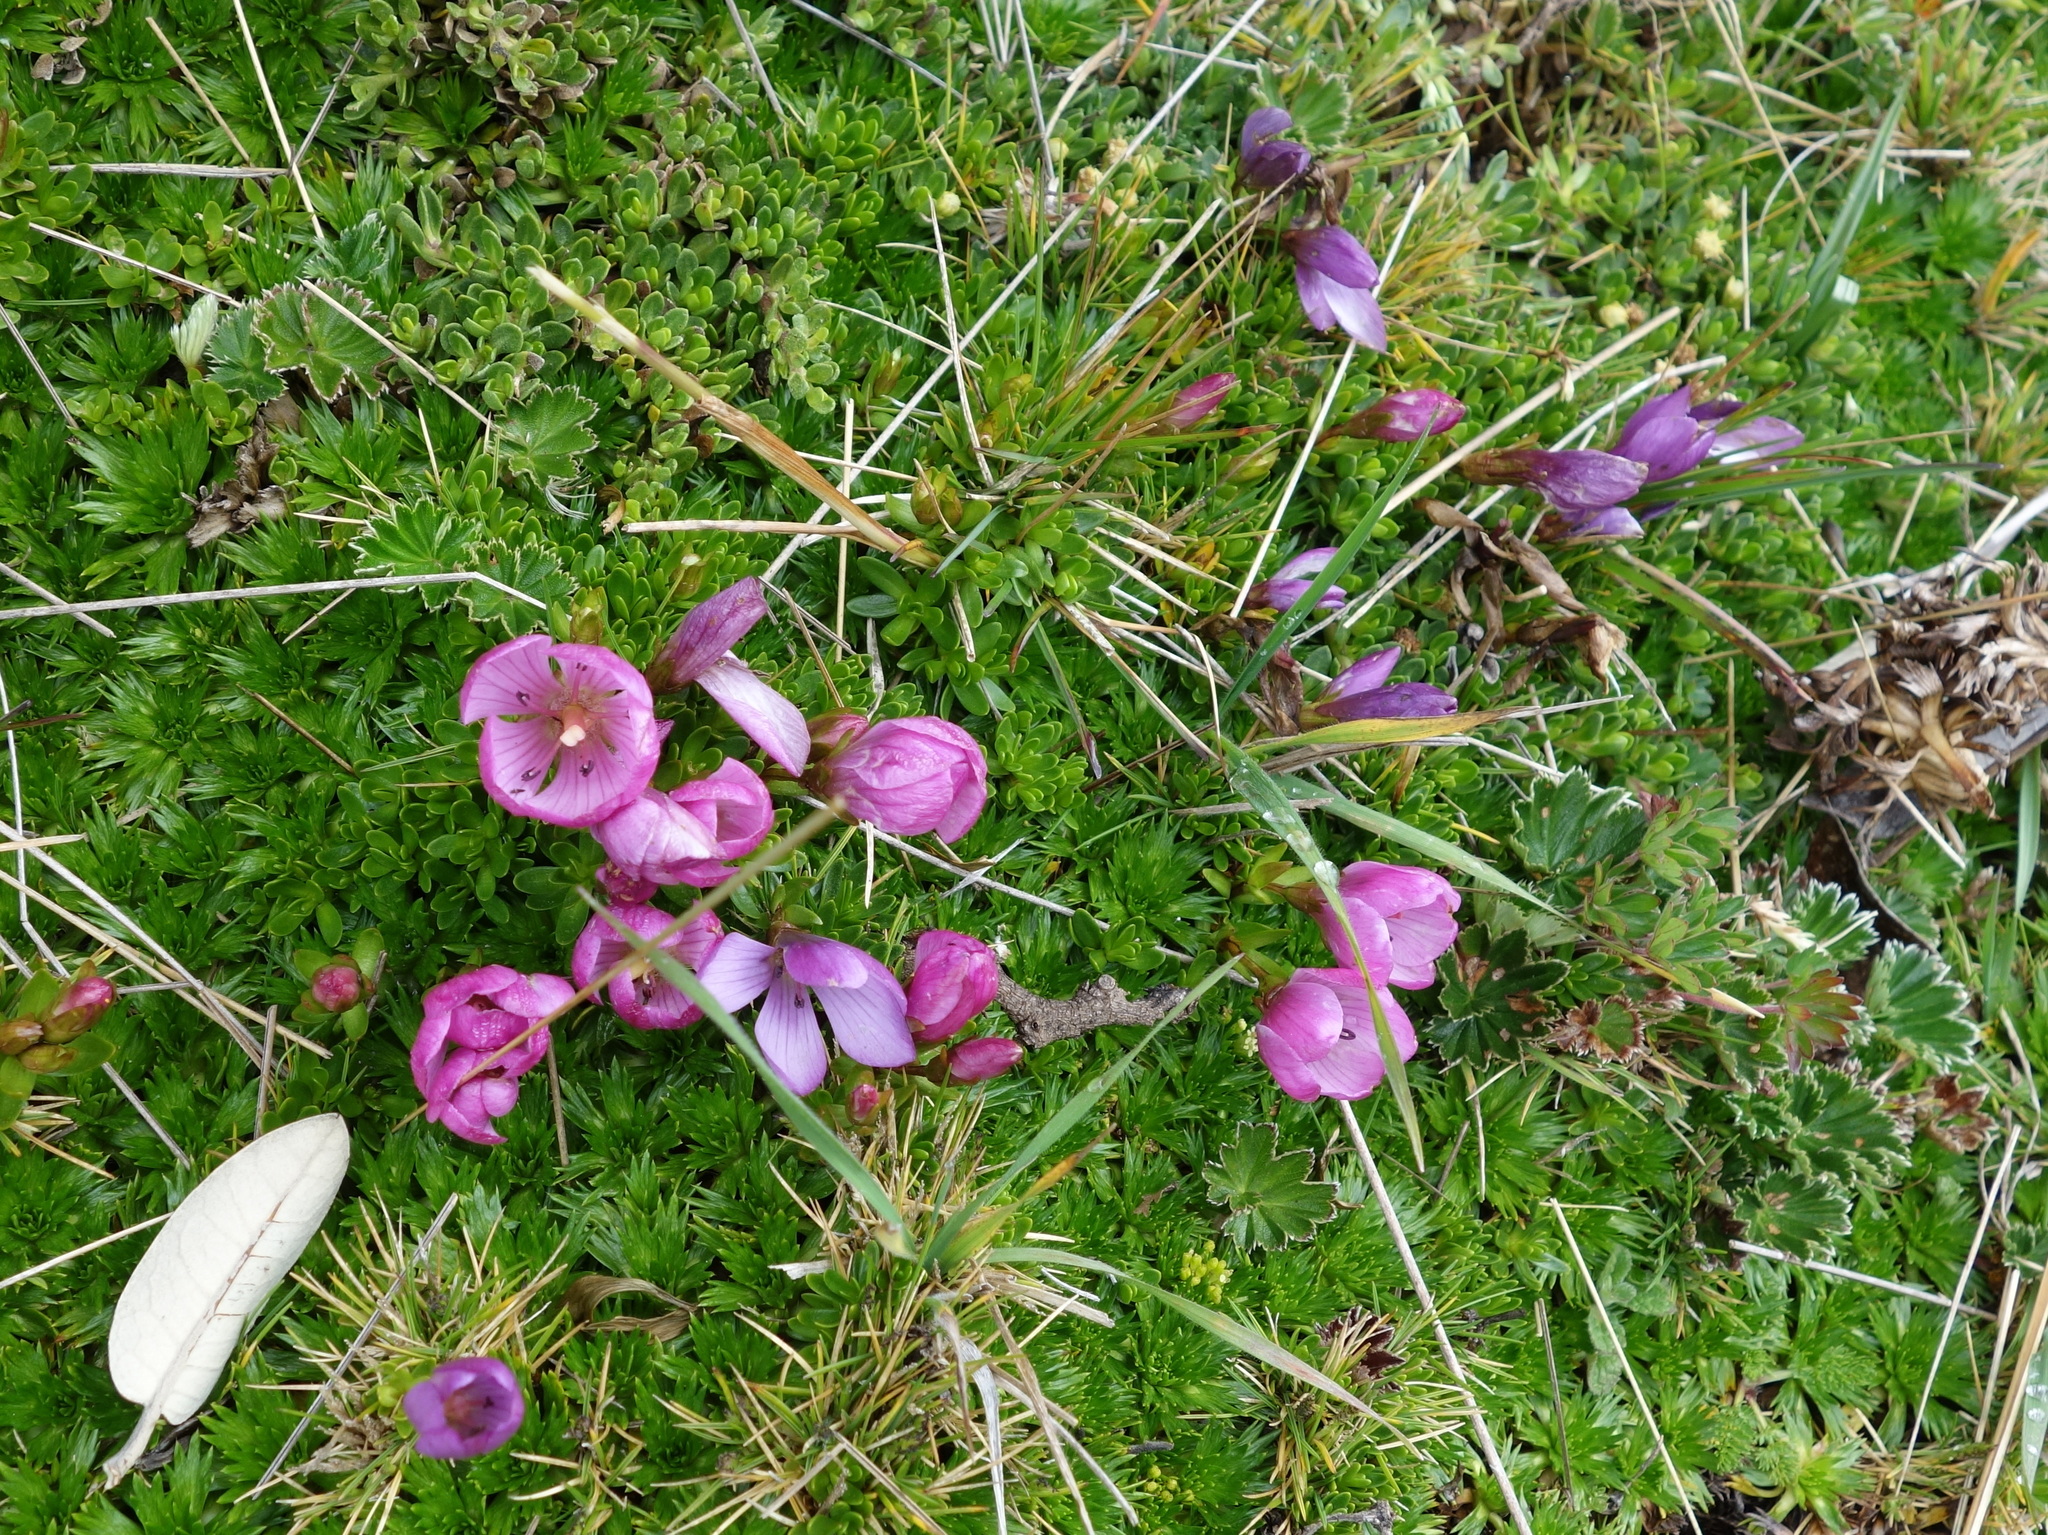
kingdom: Plantae
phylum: Tracheophyta
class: Magnoliopsida
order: Gentianales
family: Gentianaceae
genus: Gentianella
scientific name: Gentianella cerastioides
